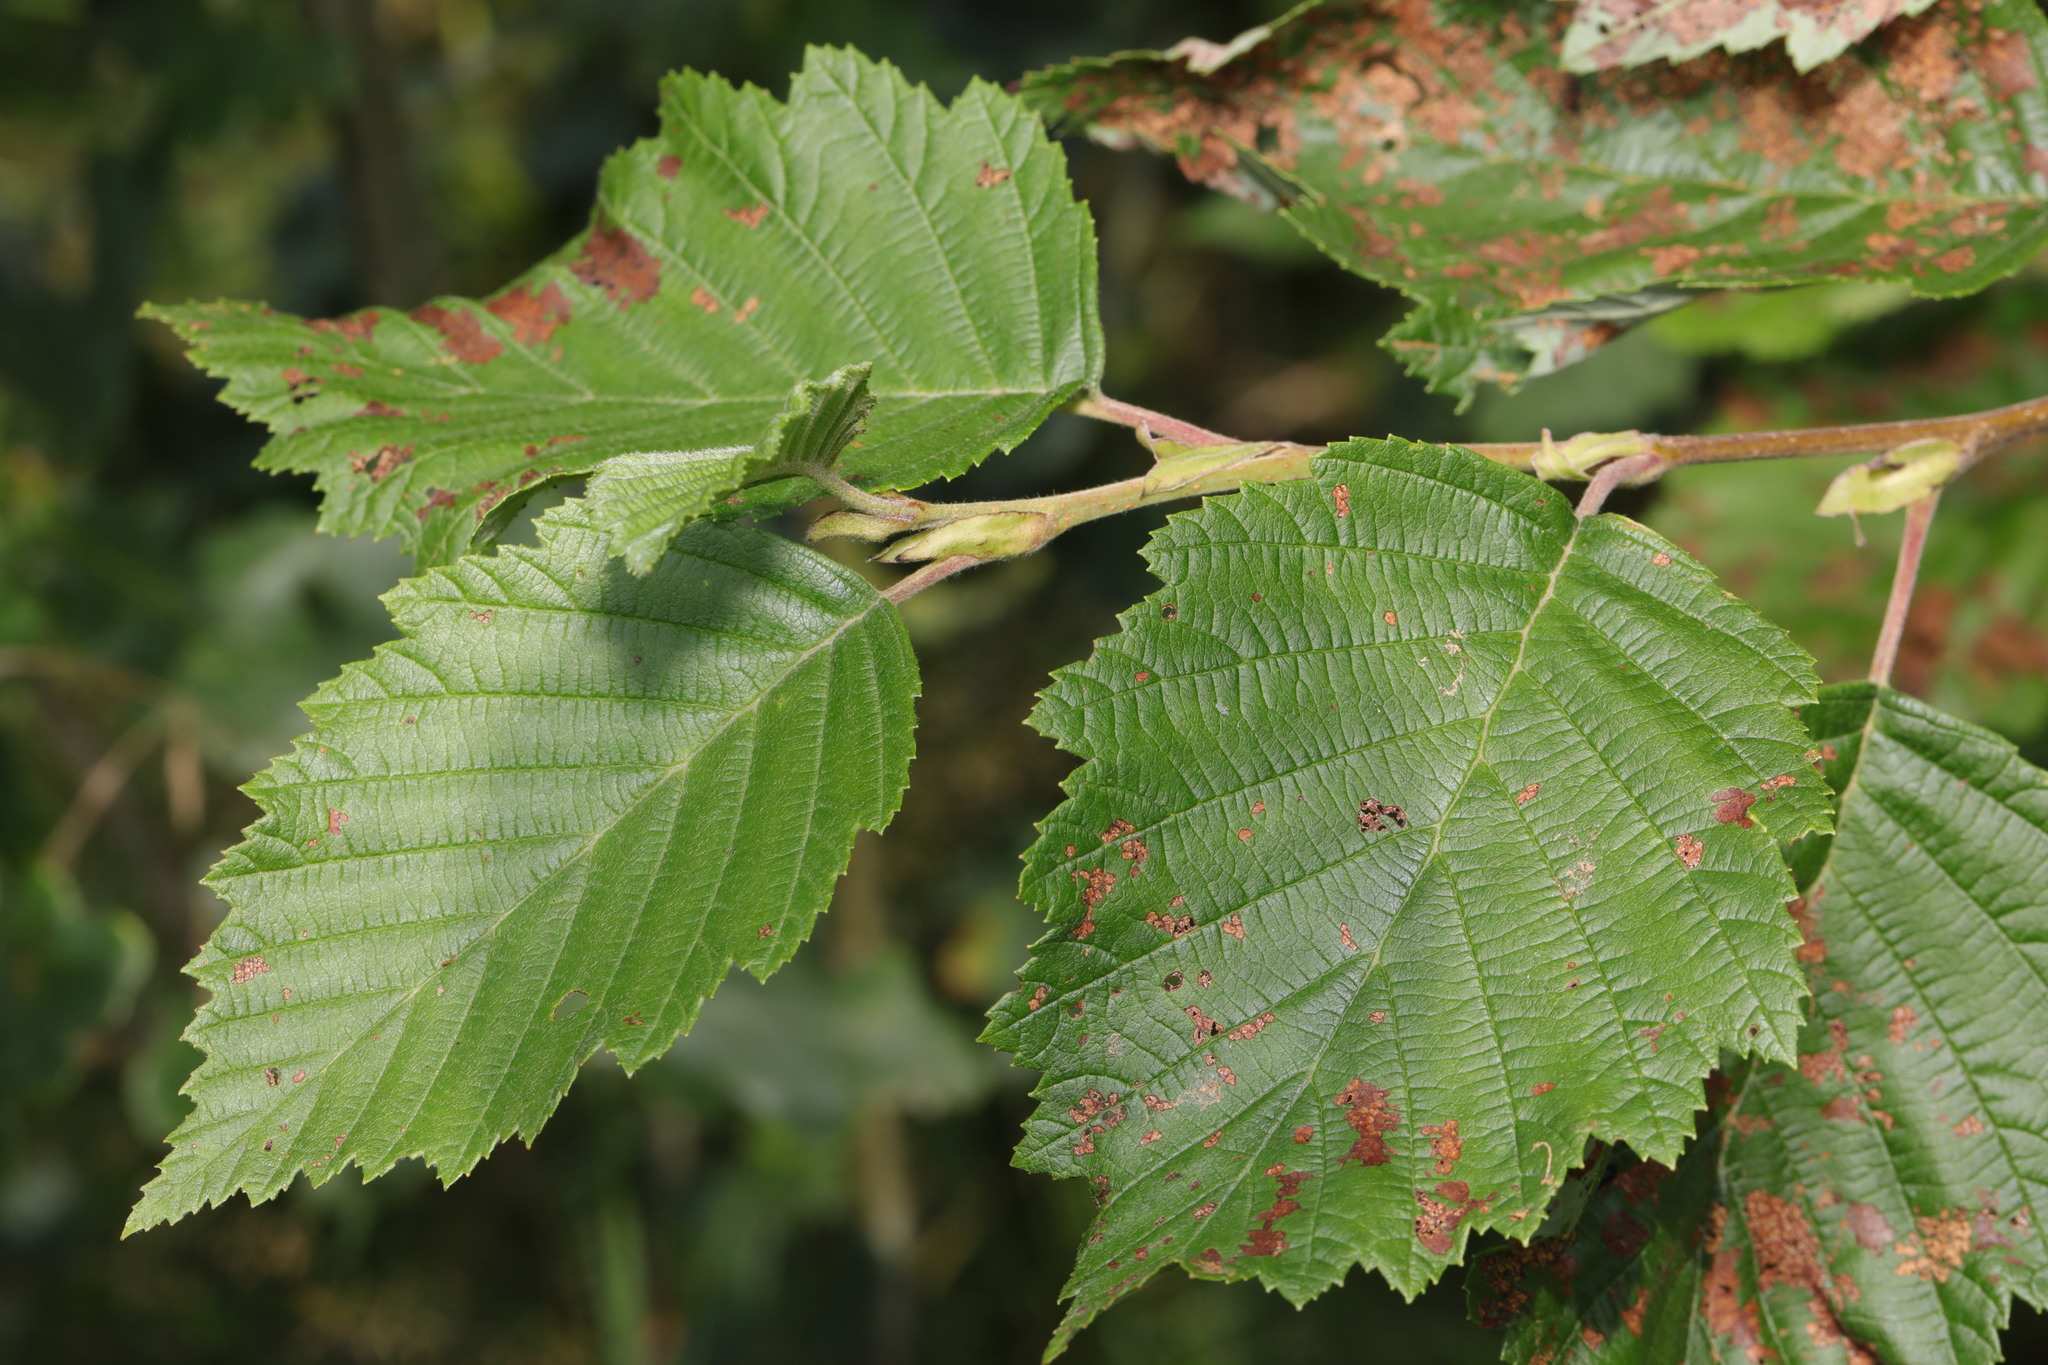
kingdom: Plantae
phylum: Tracheophyta
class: Magnoliopsida
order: Fagales
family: Betulaceae
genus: Alnus
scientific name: Alnus incana
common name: Grey alder
